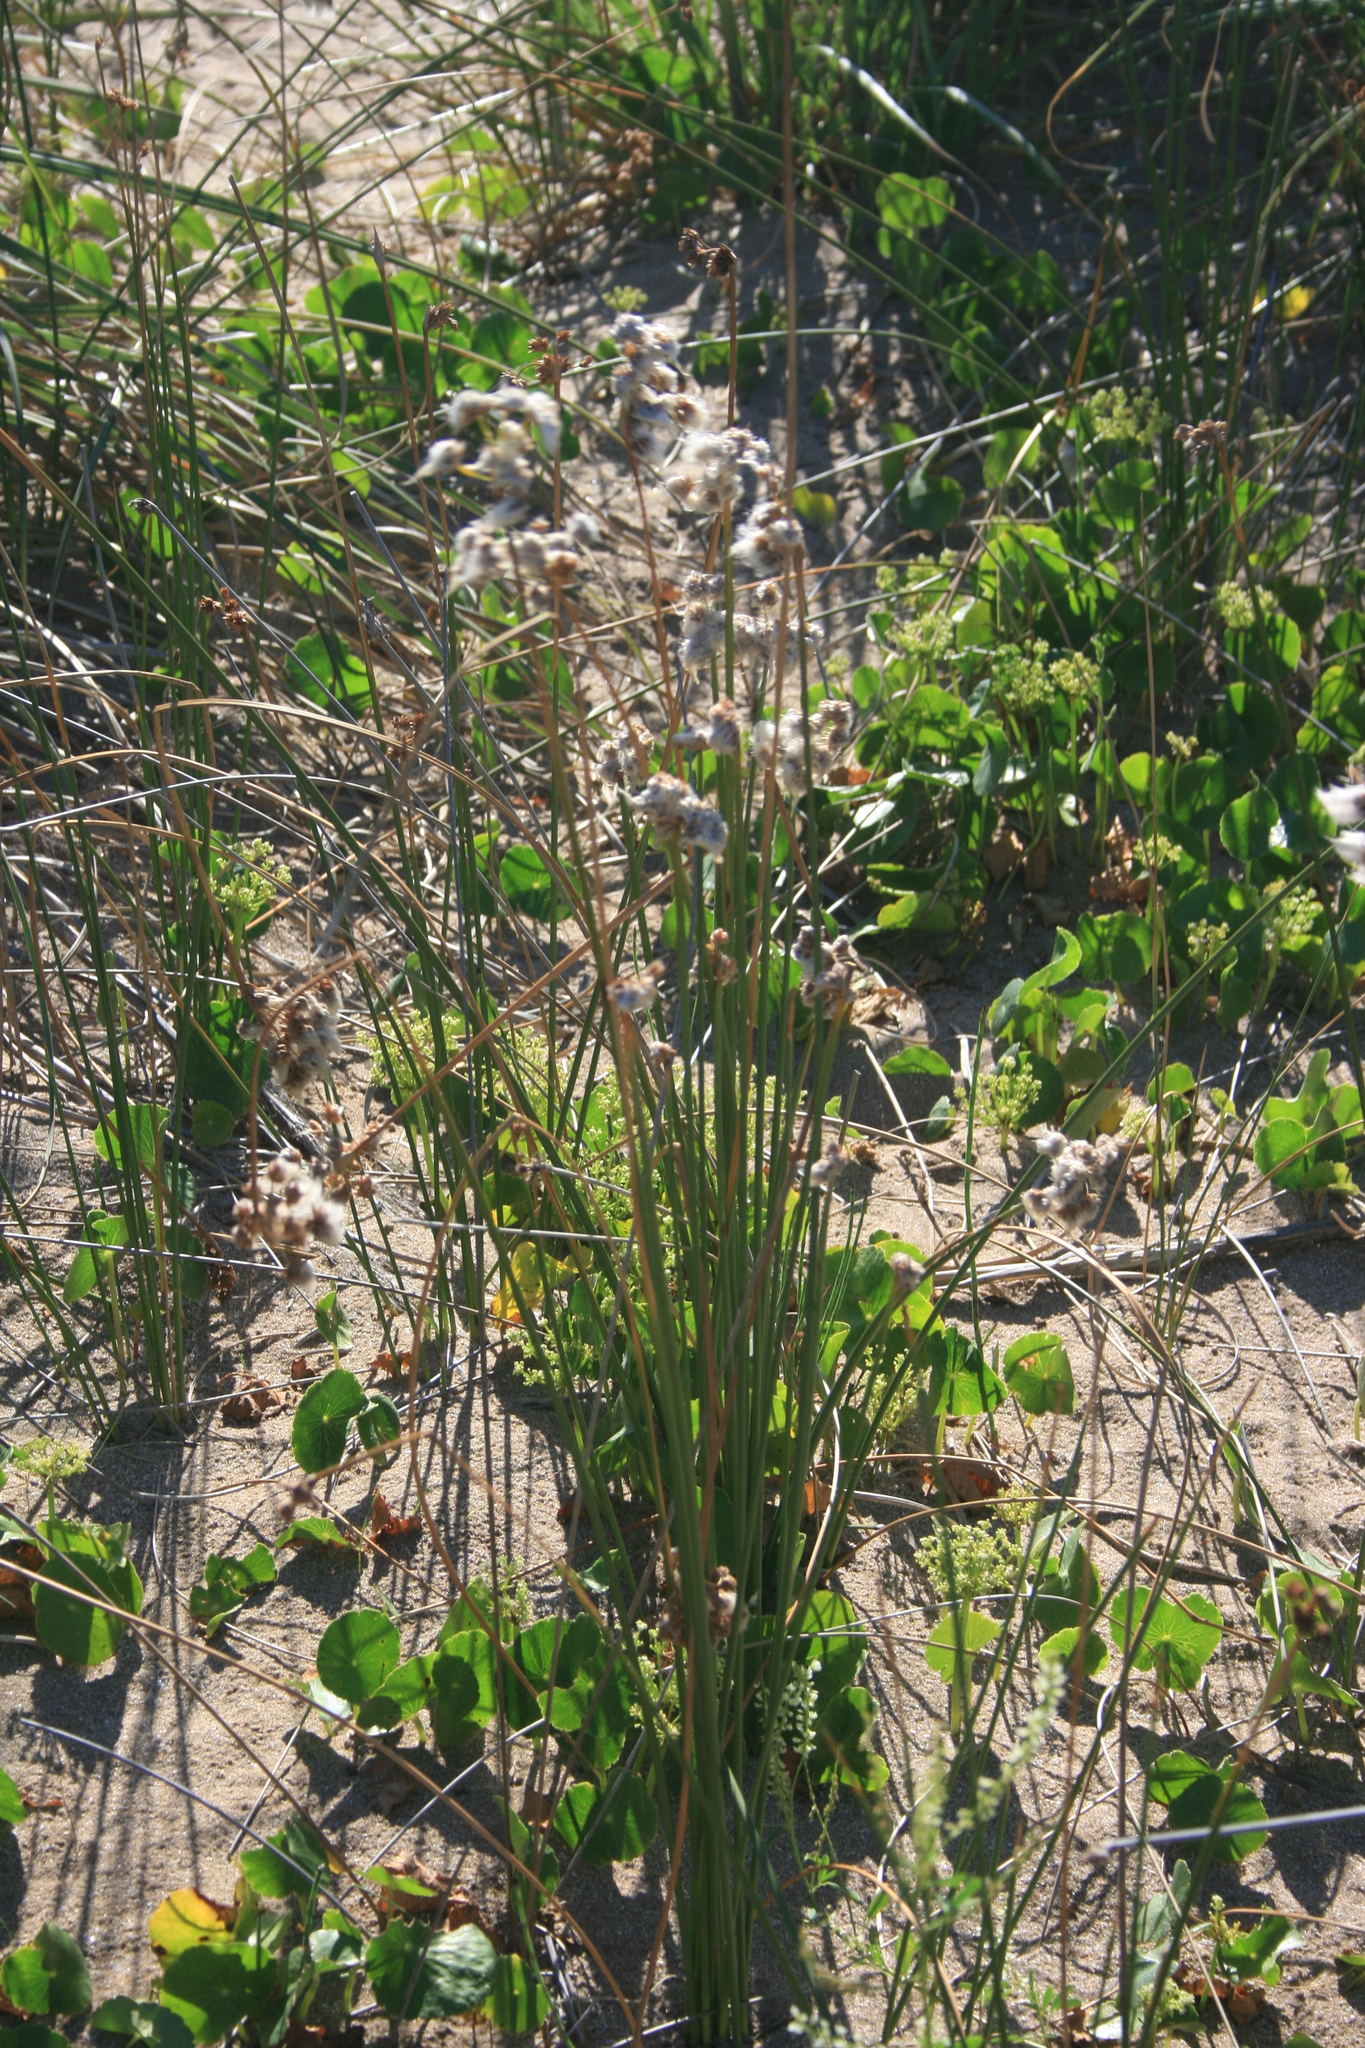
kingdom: Plantae
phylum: Tracheophyta
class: Liliopsida
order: Poales
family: Cyperaceae
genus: Cyperus
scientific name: Cyperus trigynus
